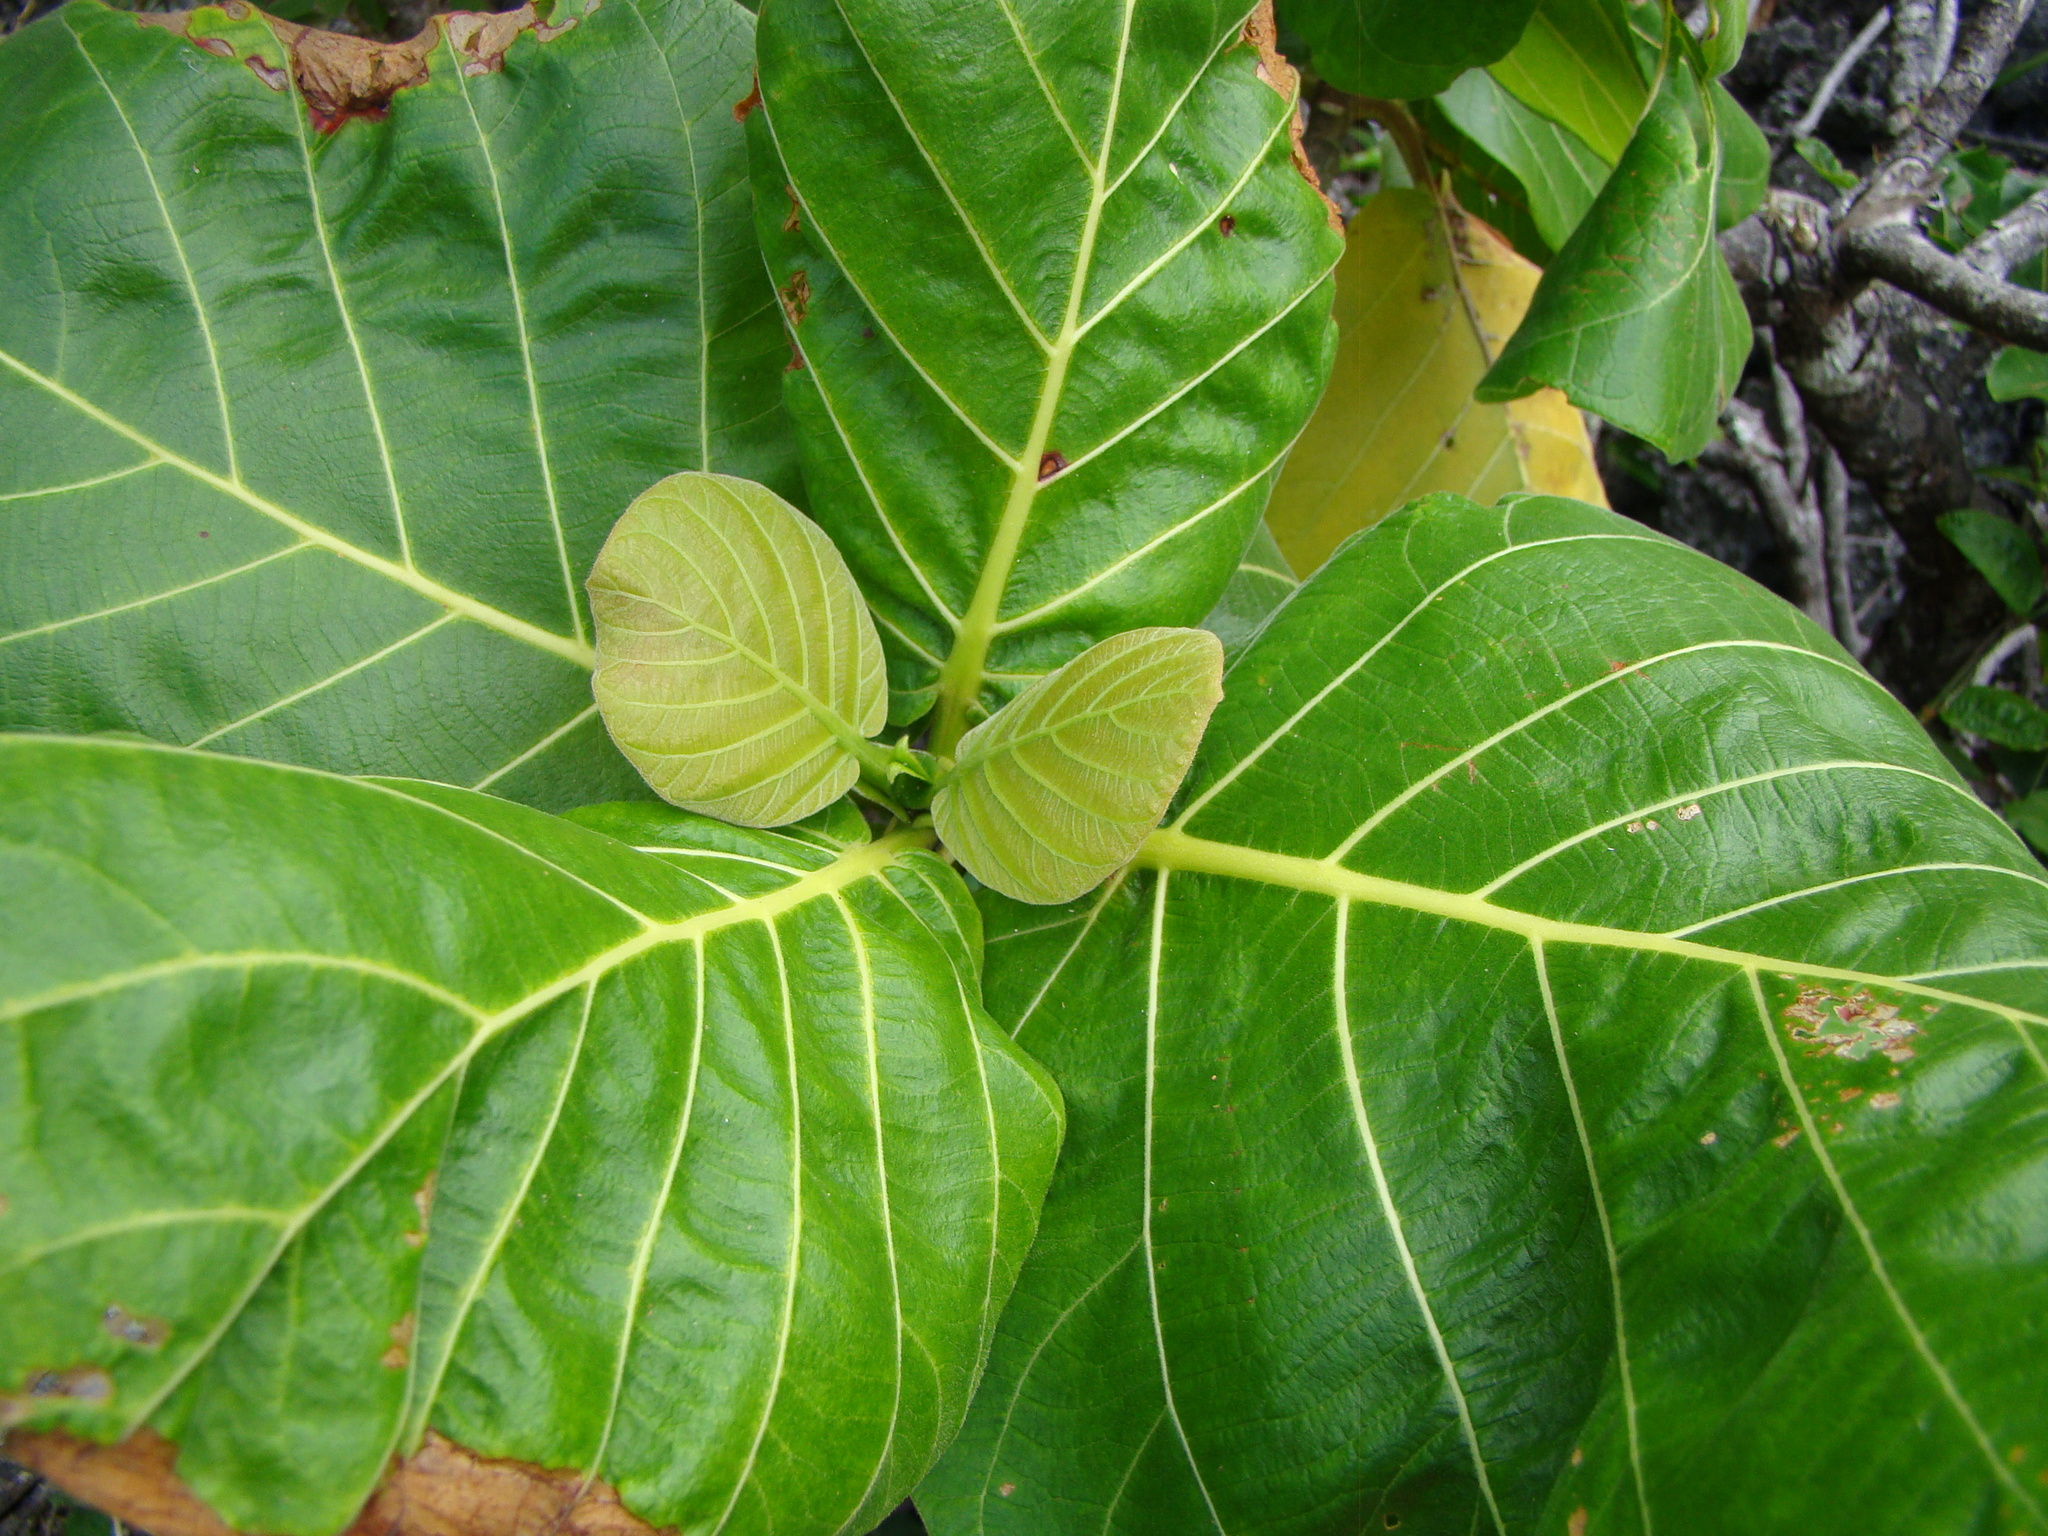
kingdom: Plantae
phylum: Tracheophyta
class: Magnoliopsida
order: Gentianales
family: Rubiaceae
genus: Guettarda
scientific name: Guettarda speciosa
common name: Sea randa
